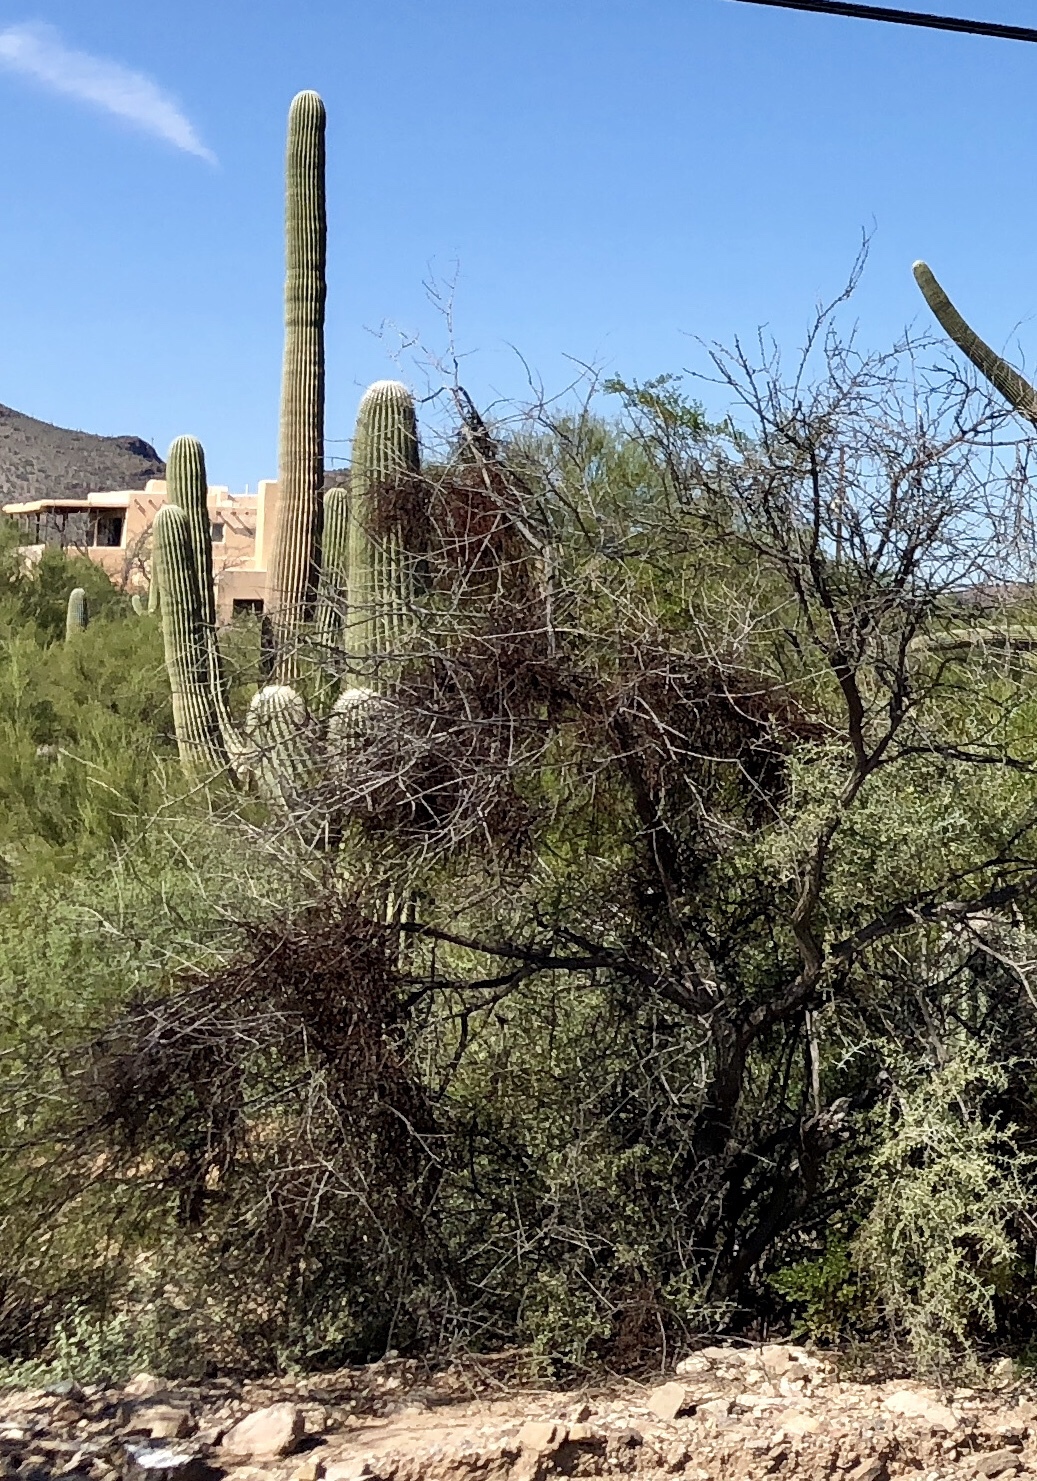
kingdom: Plantae
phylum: Tracheophyta
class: Magnoliopsida
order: Santalales
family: Viscaceae
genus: Phoradendron
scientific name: Phoradendron californicum
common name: Acacia mistletoe
